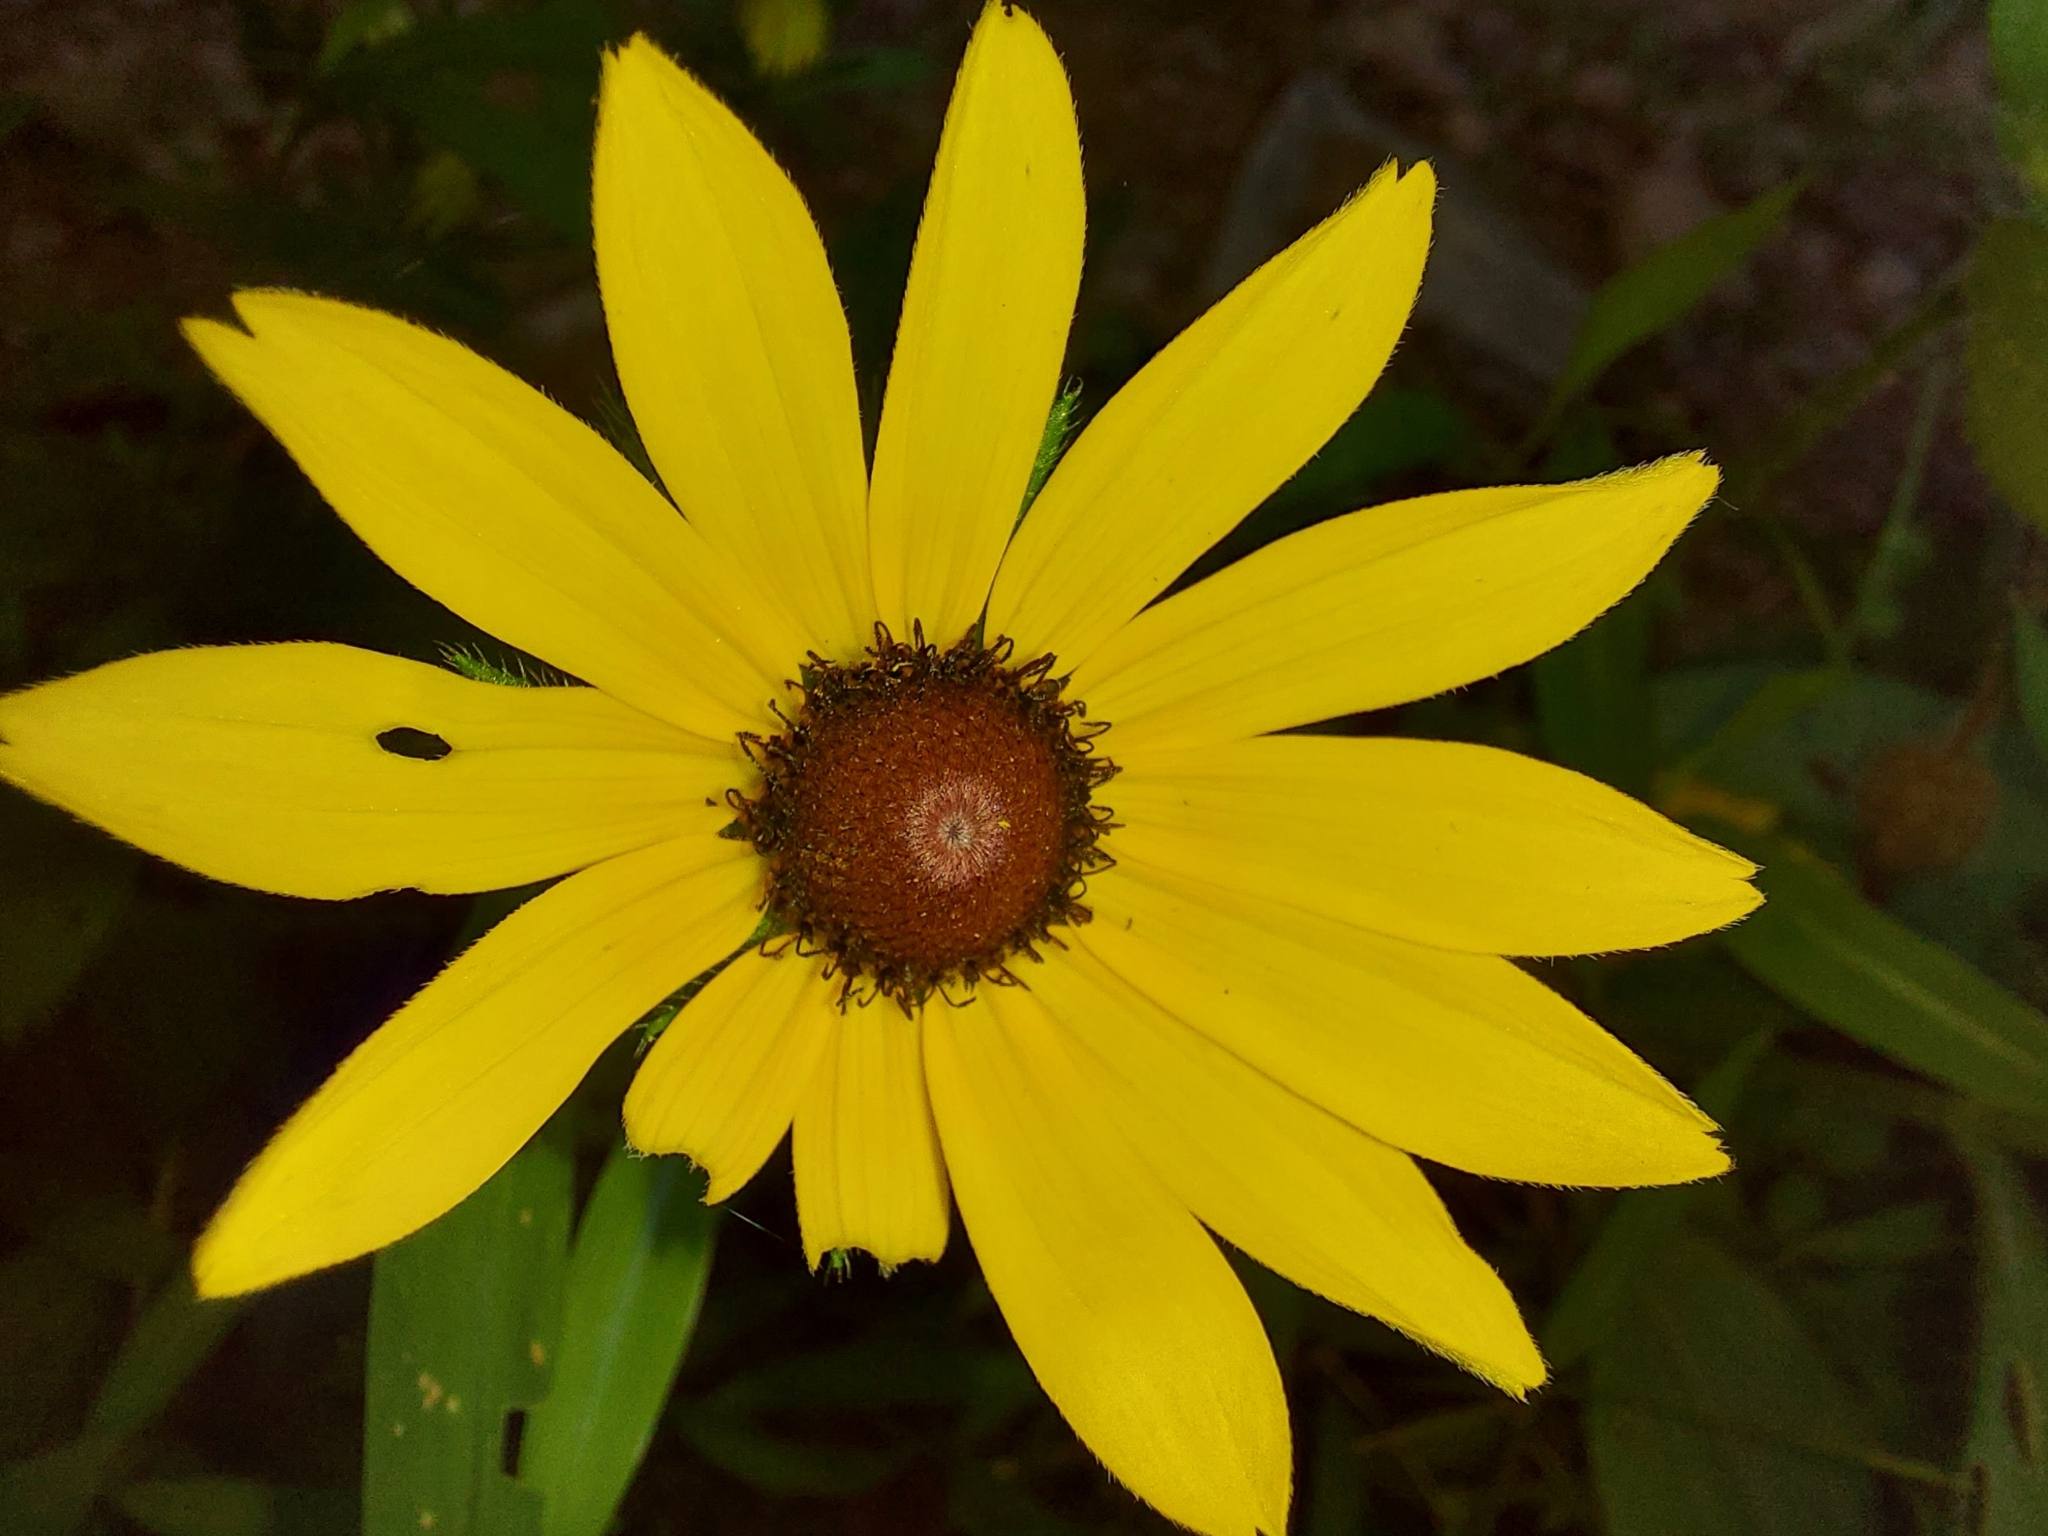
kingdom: Plantae
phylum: Tracheophyta
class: Magnoliopsida
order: Asterales
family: Asteraceae
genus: Rudbeckia
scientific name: Rudbeckia hirta
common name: Black-eyed-susan
